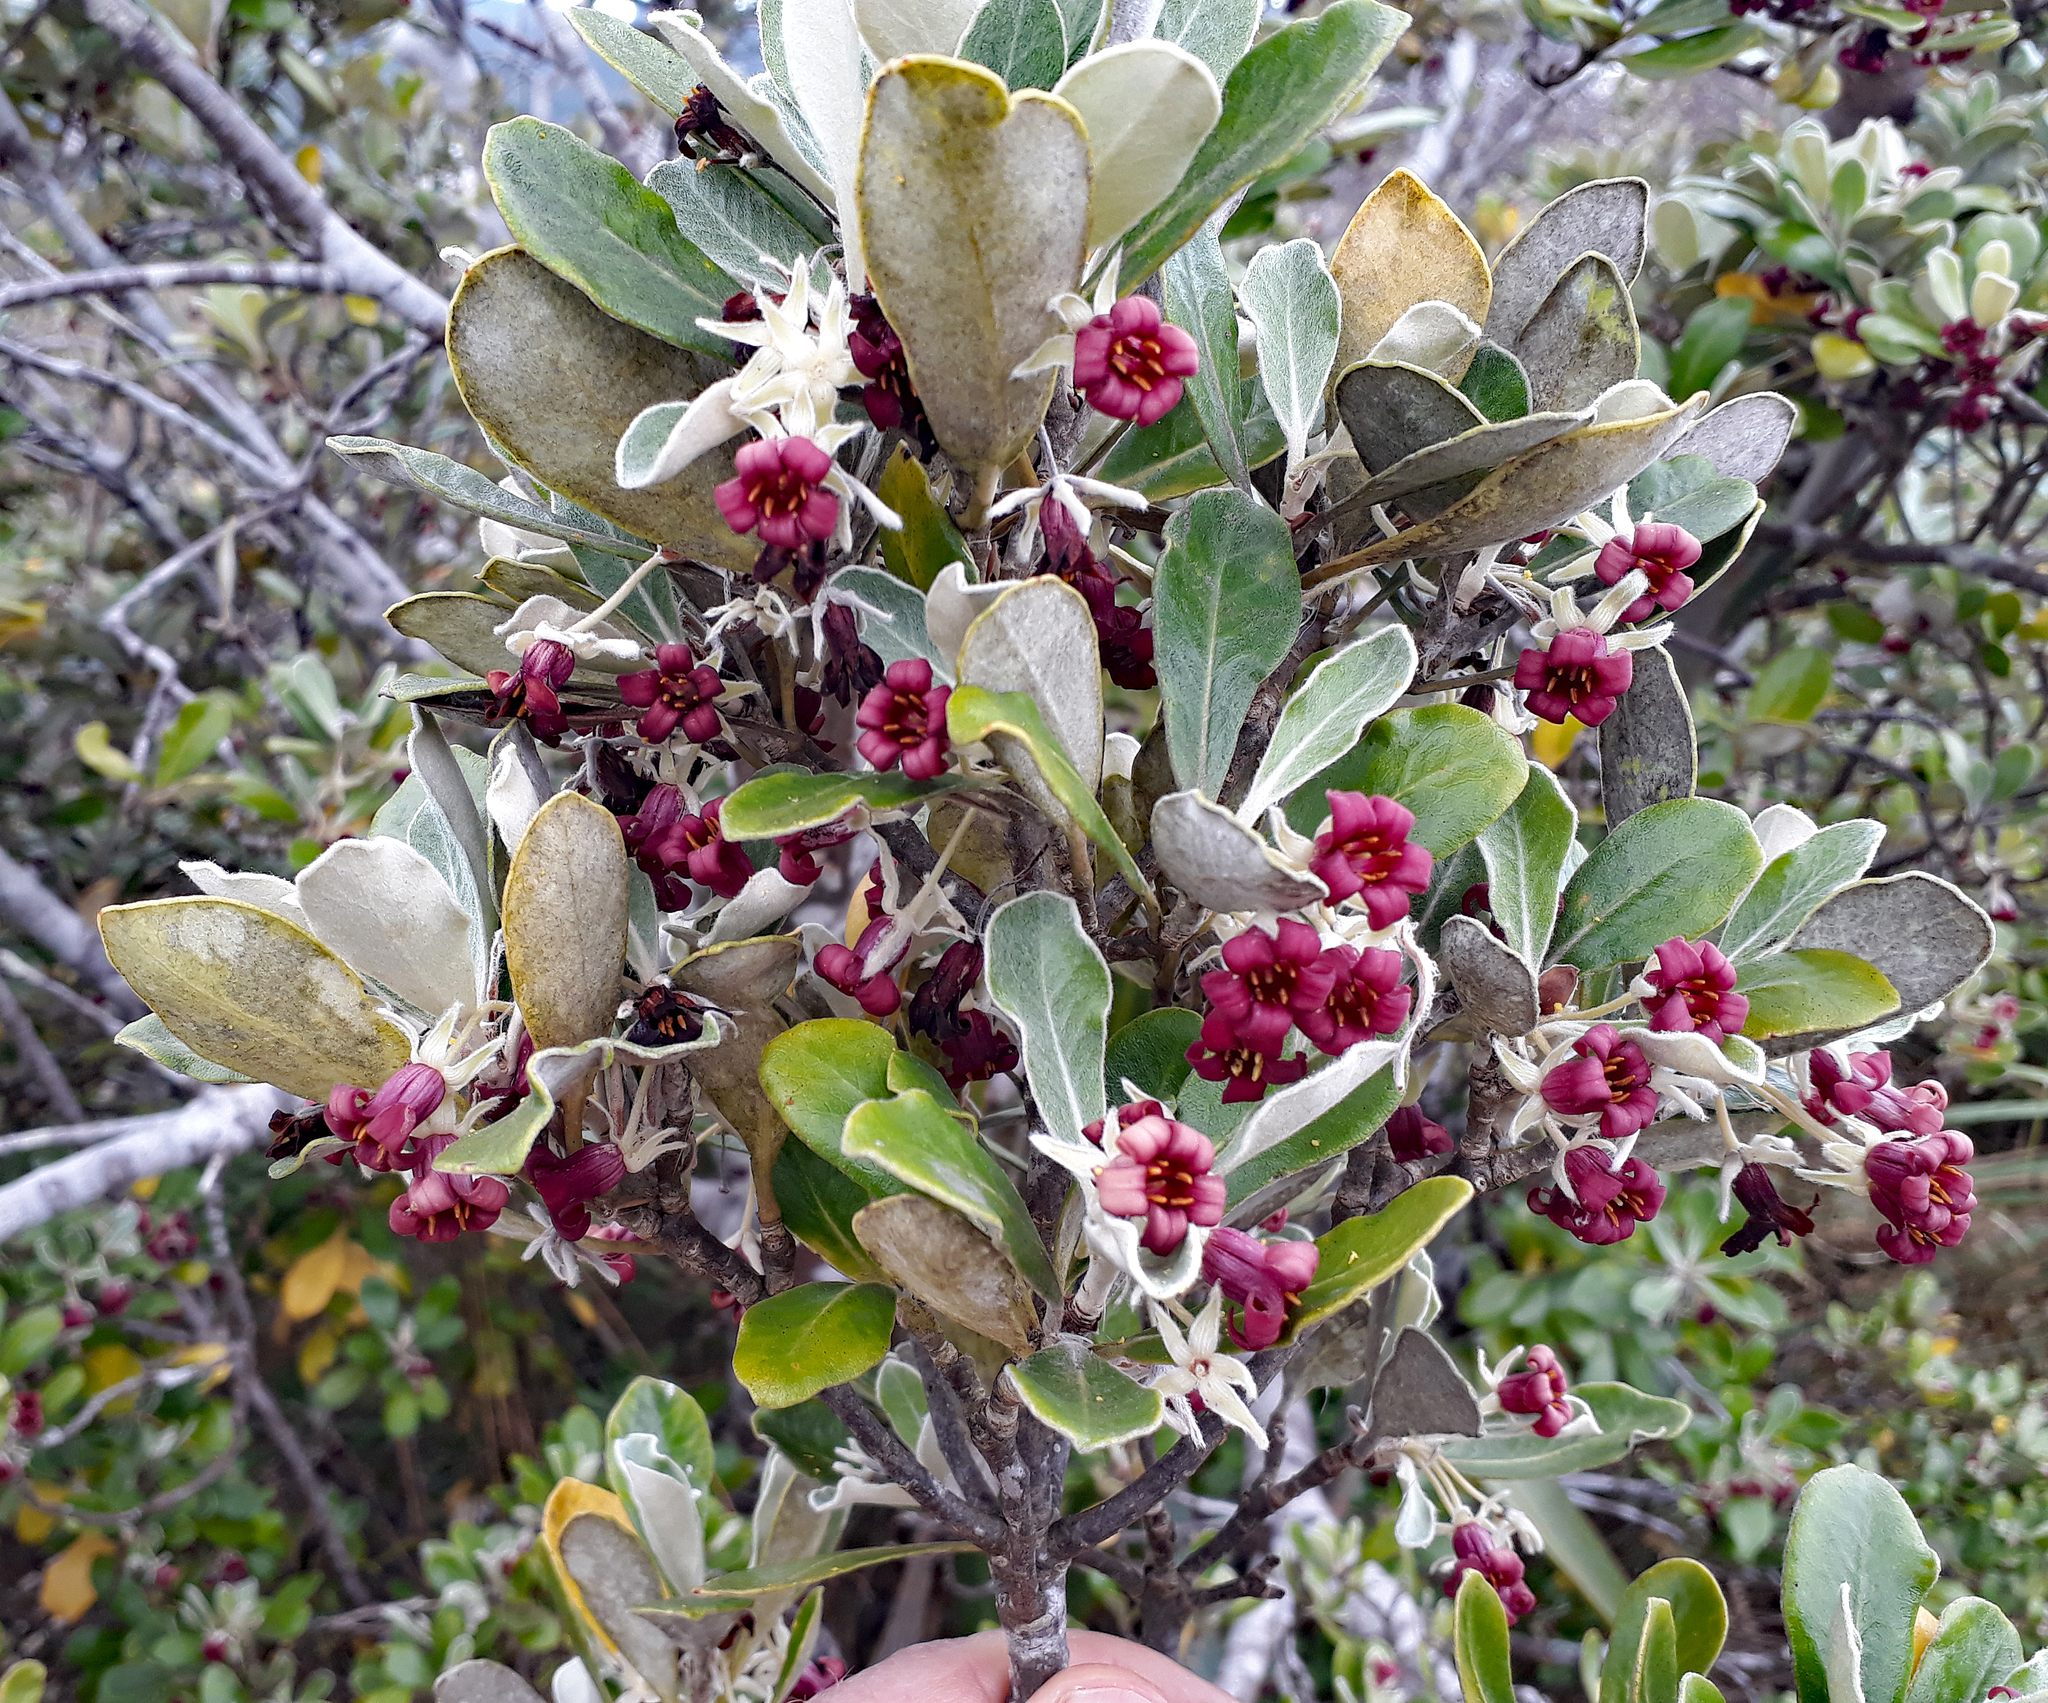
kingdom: Plantae
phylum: Tracheophyta
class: Magnoliopsida
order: Apiales
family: Pittosporaceae
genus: Pittosporum
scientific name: Pittosporum crassifolium
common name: Karo
